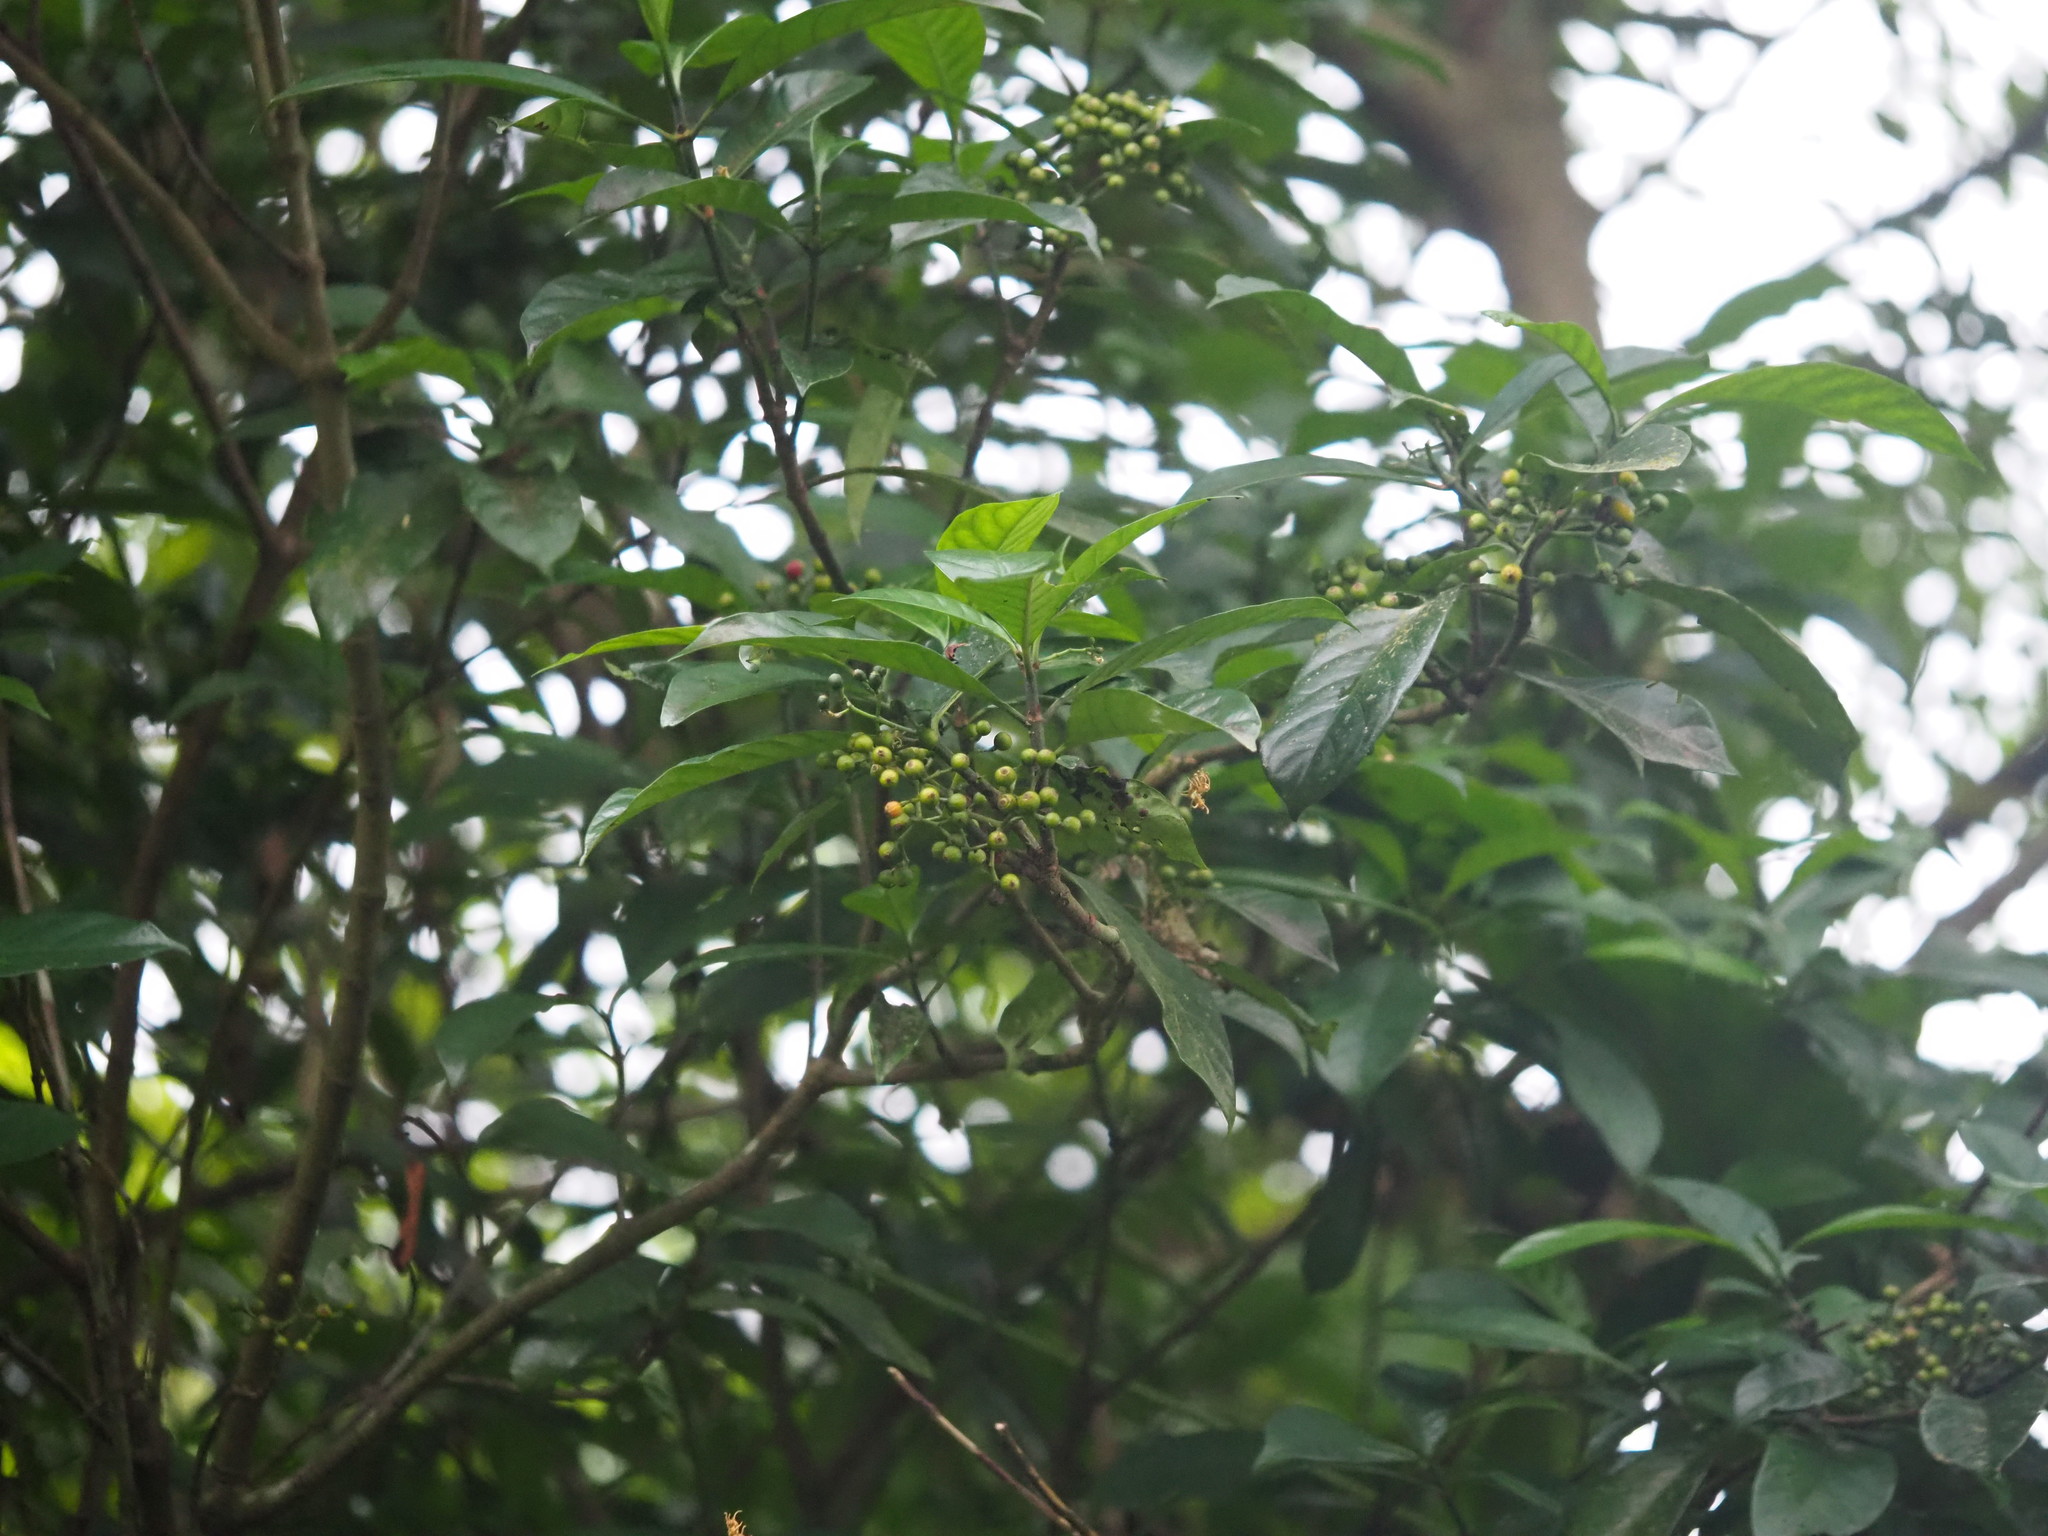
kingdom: Plantae
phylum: Tracheophyta
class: Magnoliopsida
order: Gentianales
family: Rubiaceae
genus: Psychotria
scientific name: Psychotria asiatica
